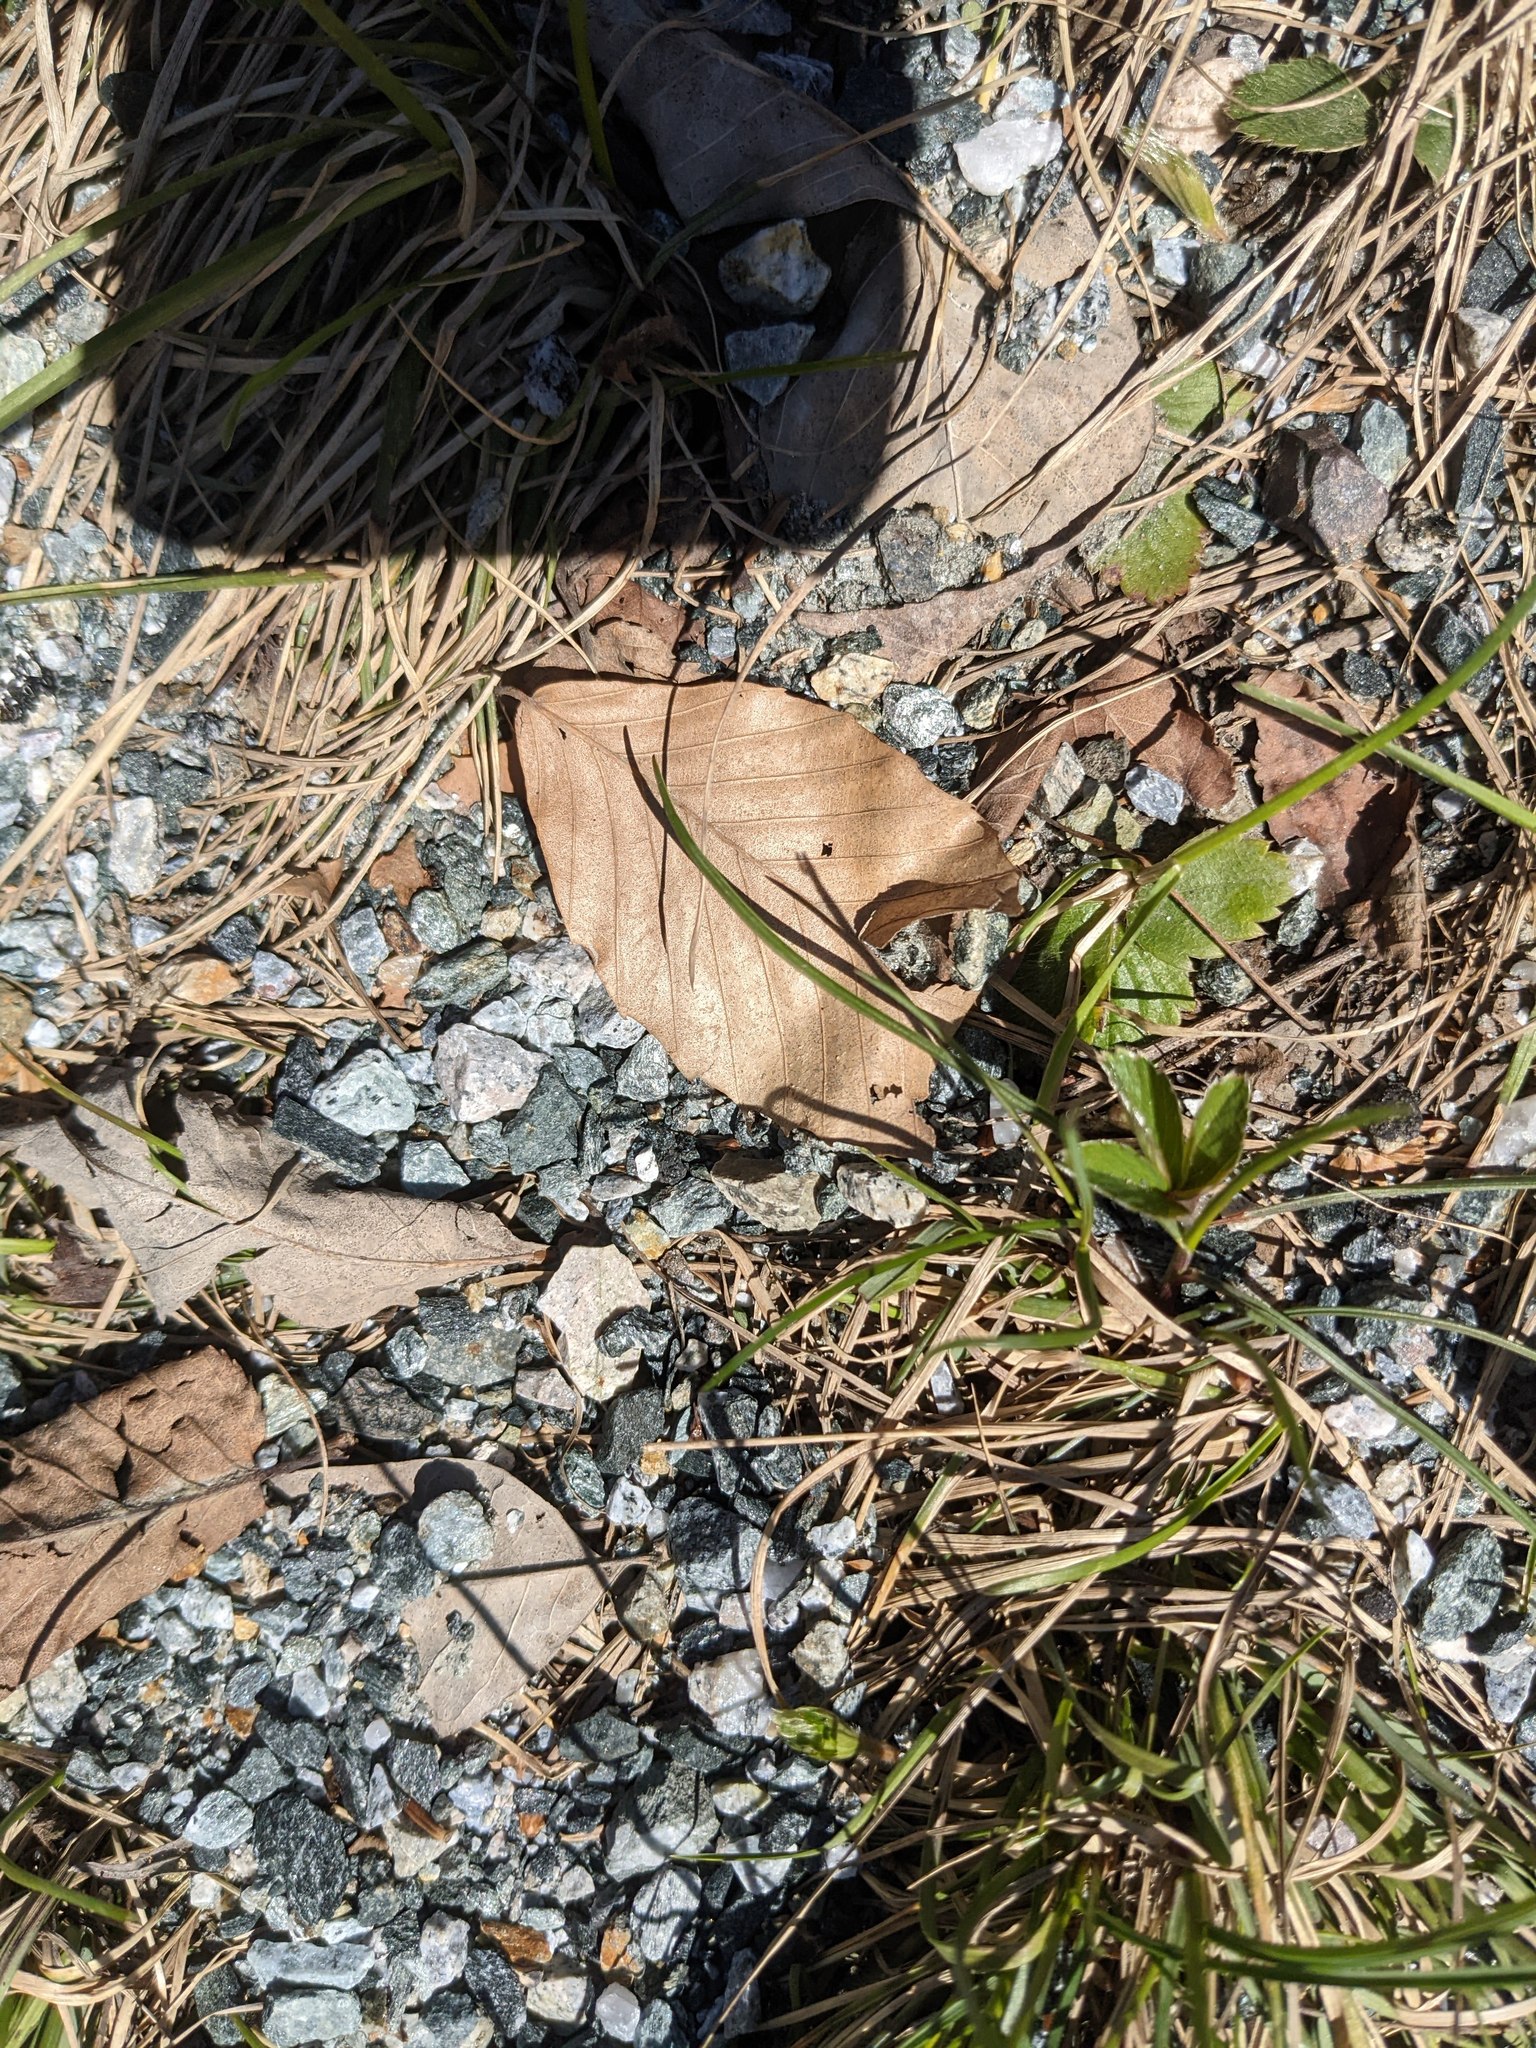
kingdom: Plantae
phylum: Tracheophyta
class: Magnoliopsida
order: Fagales
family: Fagaceae
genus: Fagus
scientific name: Fagus grandifolia
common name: American beech
